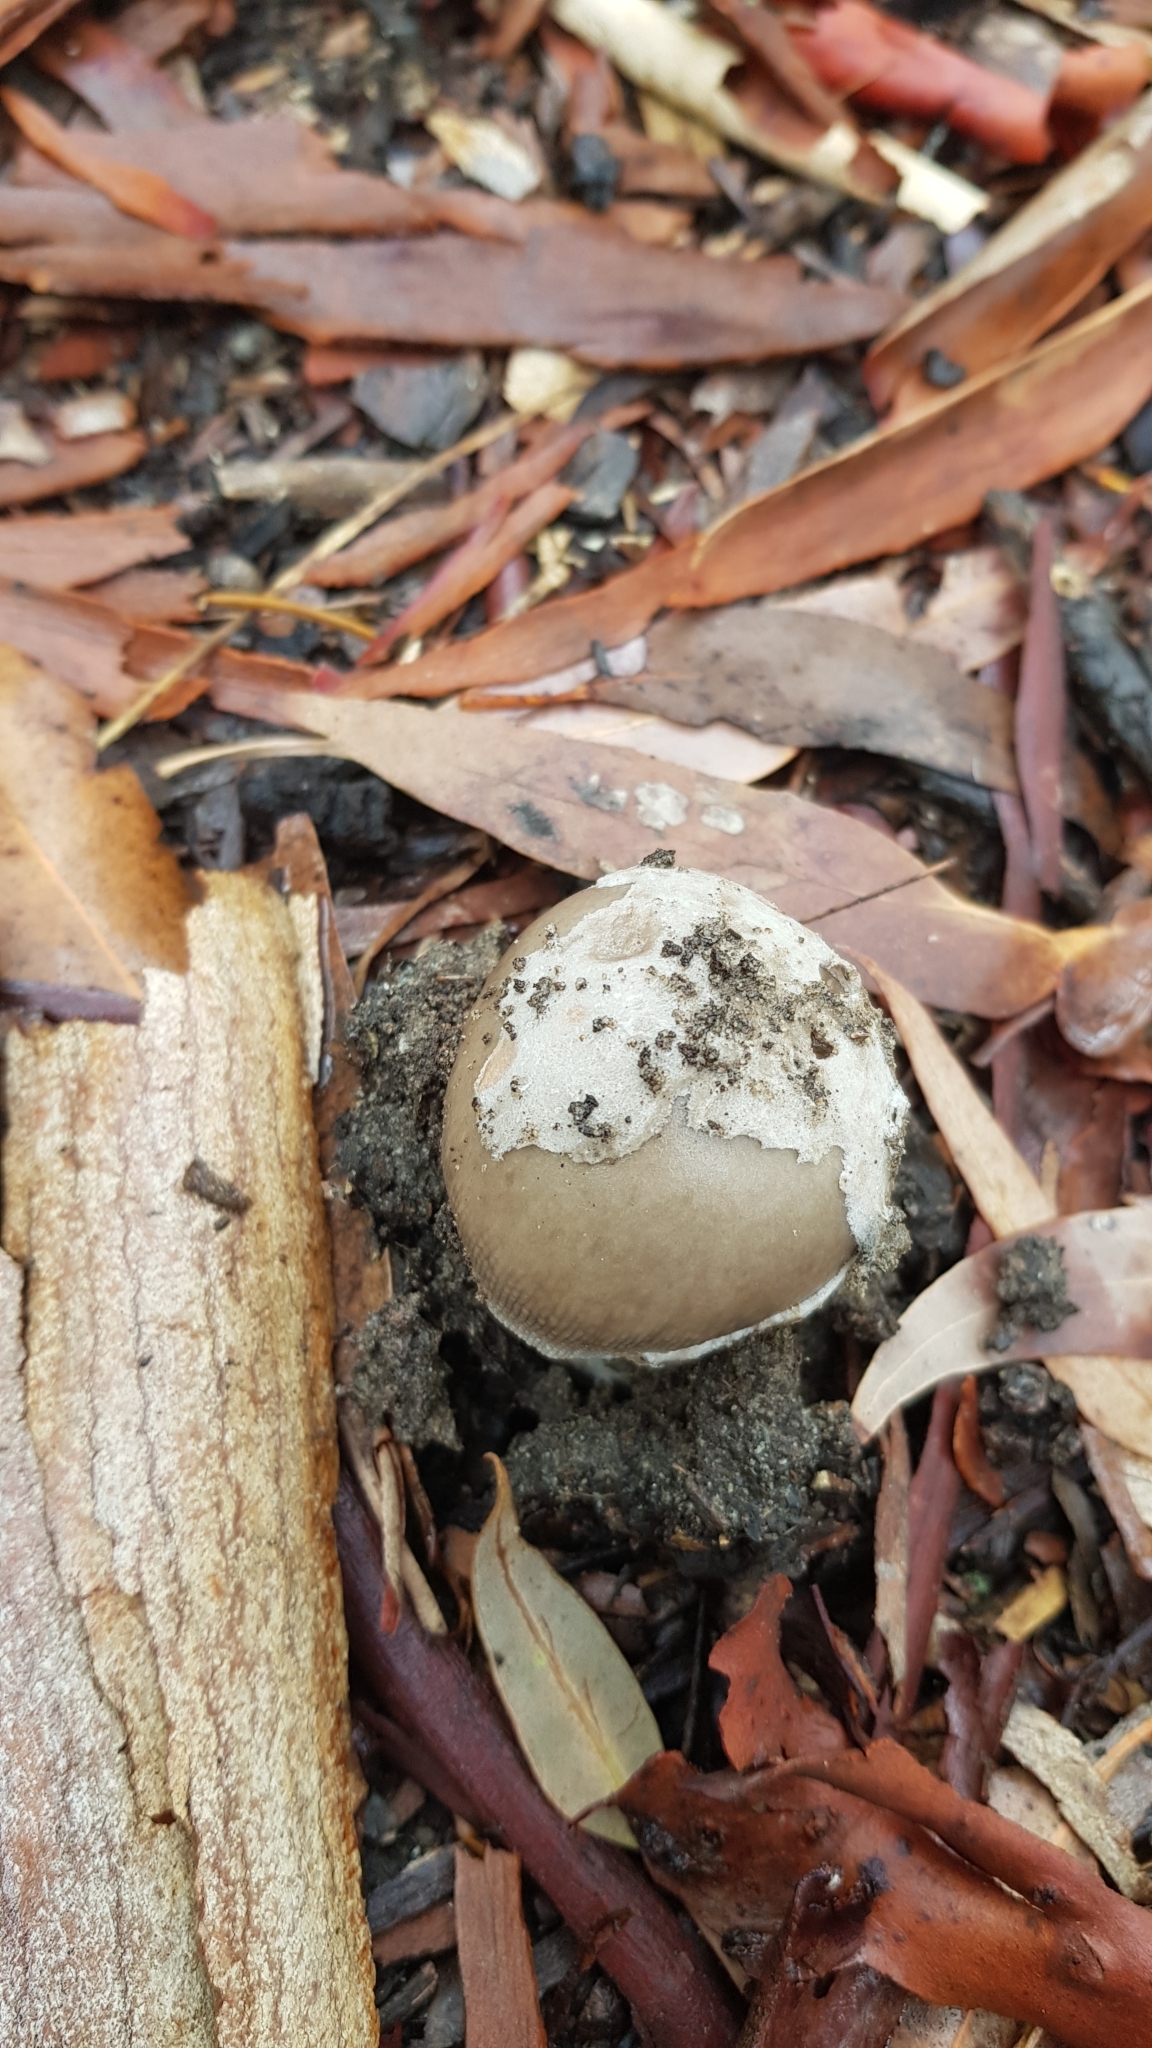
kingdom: Fungi
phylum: Basidiomycota
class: Agaricomycetes
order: Agaricales
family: Amanitaceae
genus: Amanita
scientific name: Amanita cheelii
